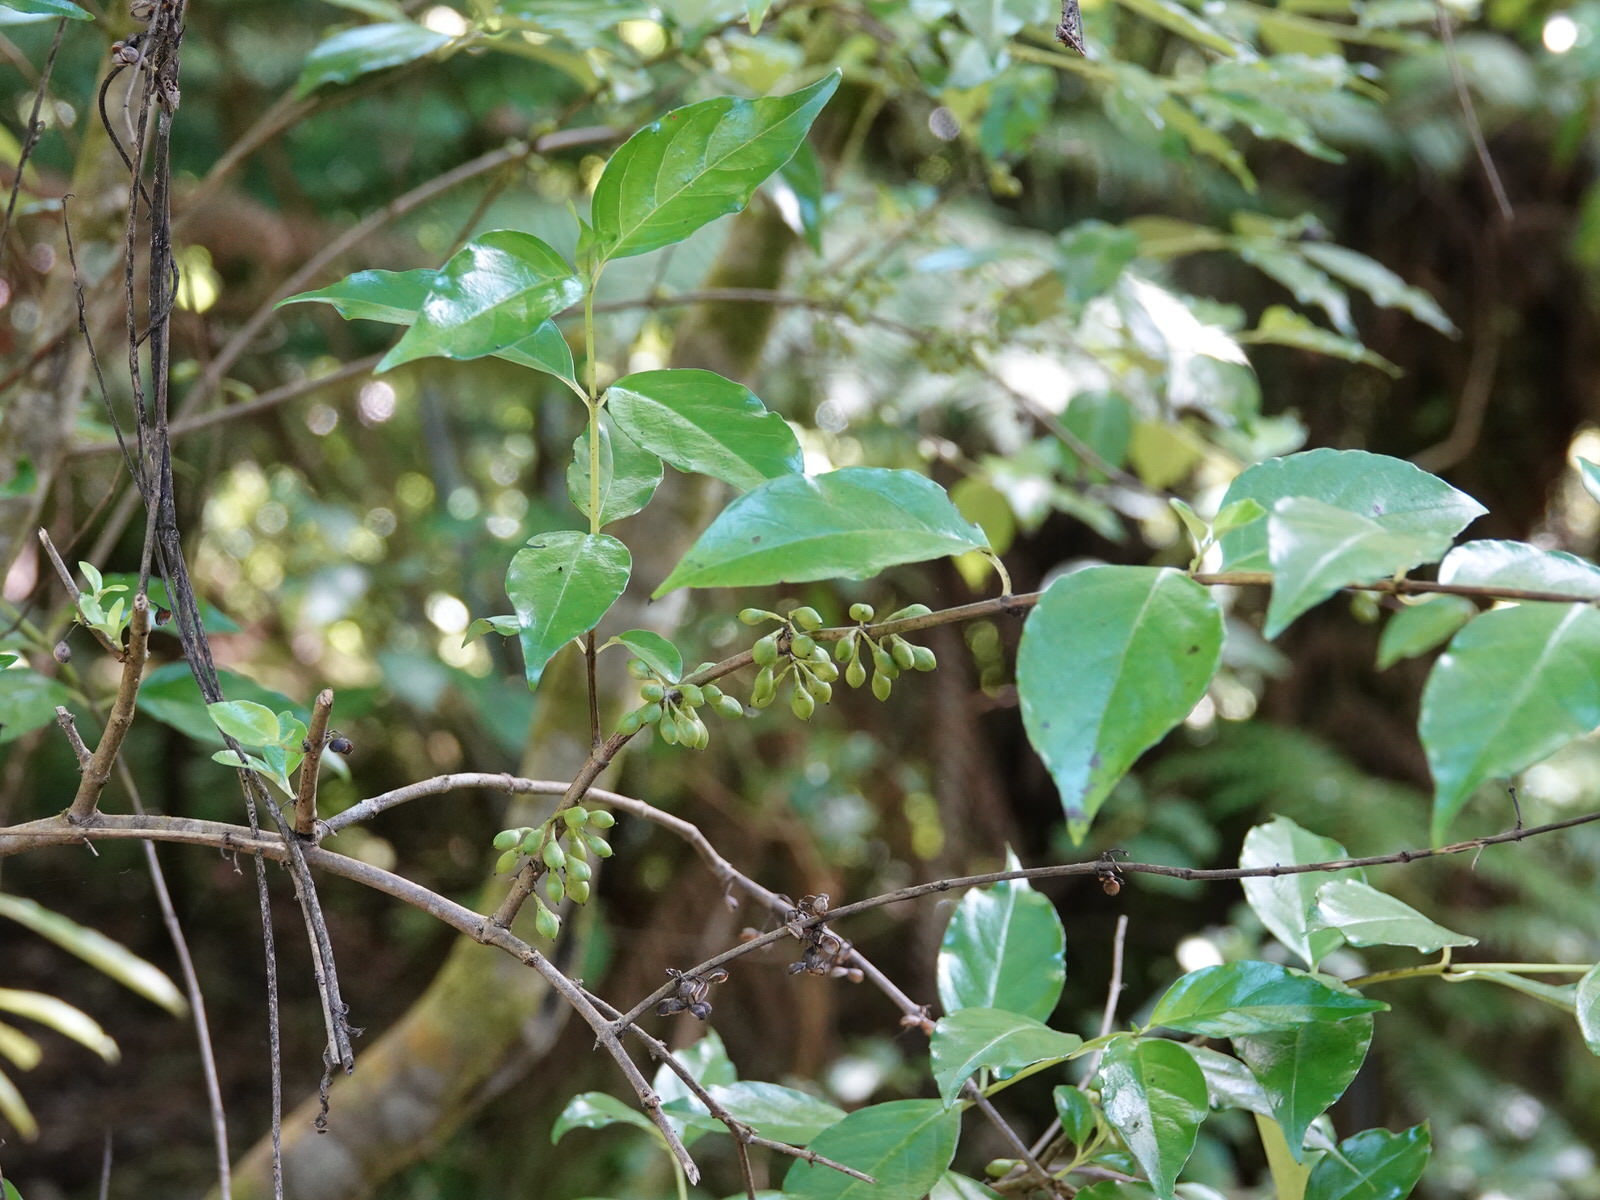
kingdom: Plantae
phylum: Tracheophyta
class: Magnoliopsida
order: Gentianales
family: Loganiaceae
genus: Geniostoma
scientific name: Geniostoma ligustrifolium
